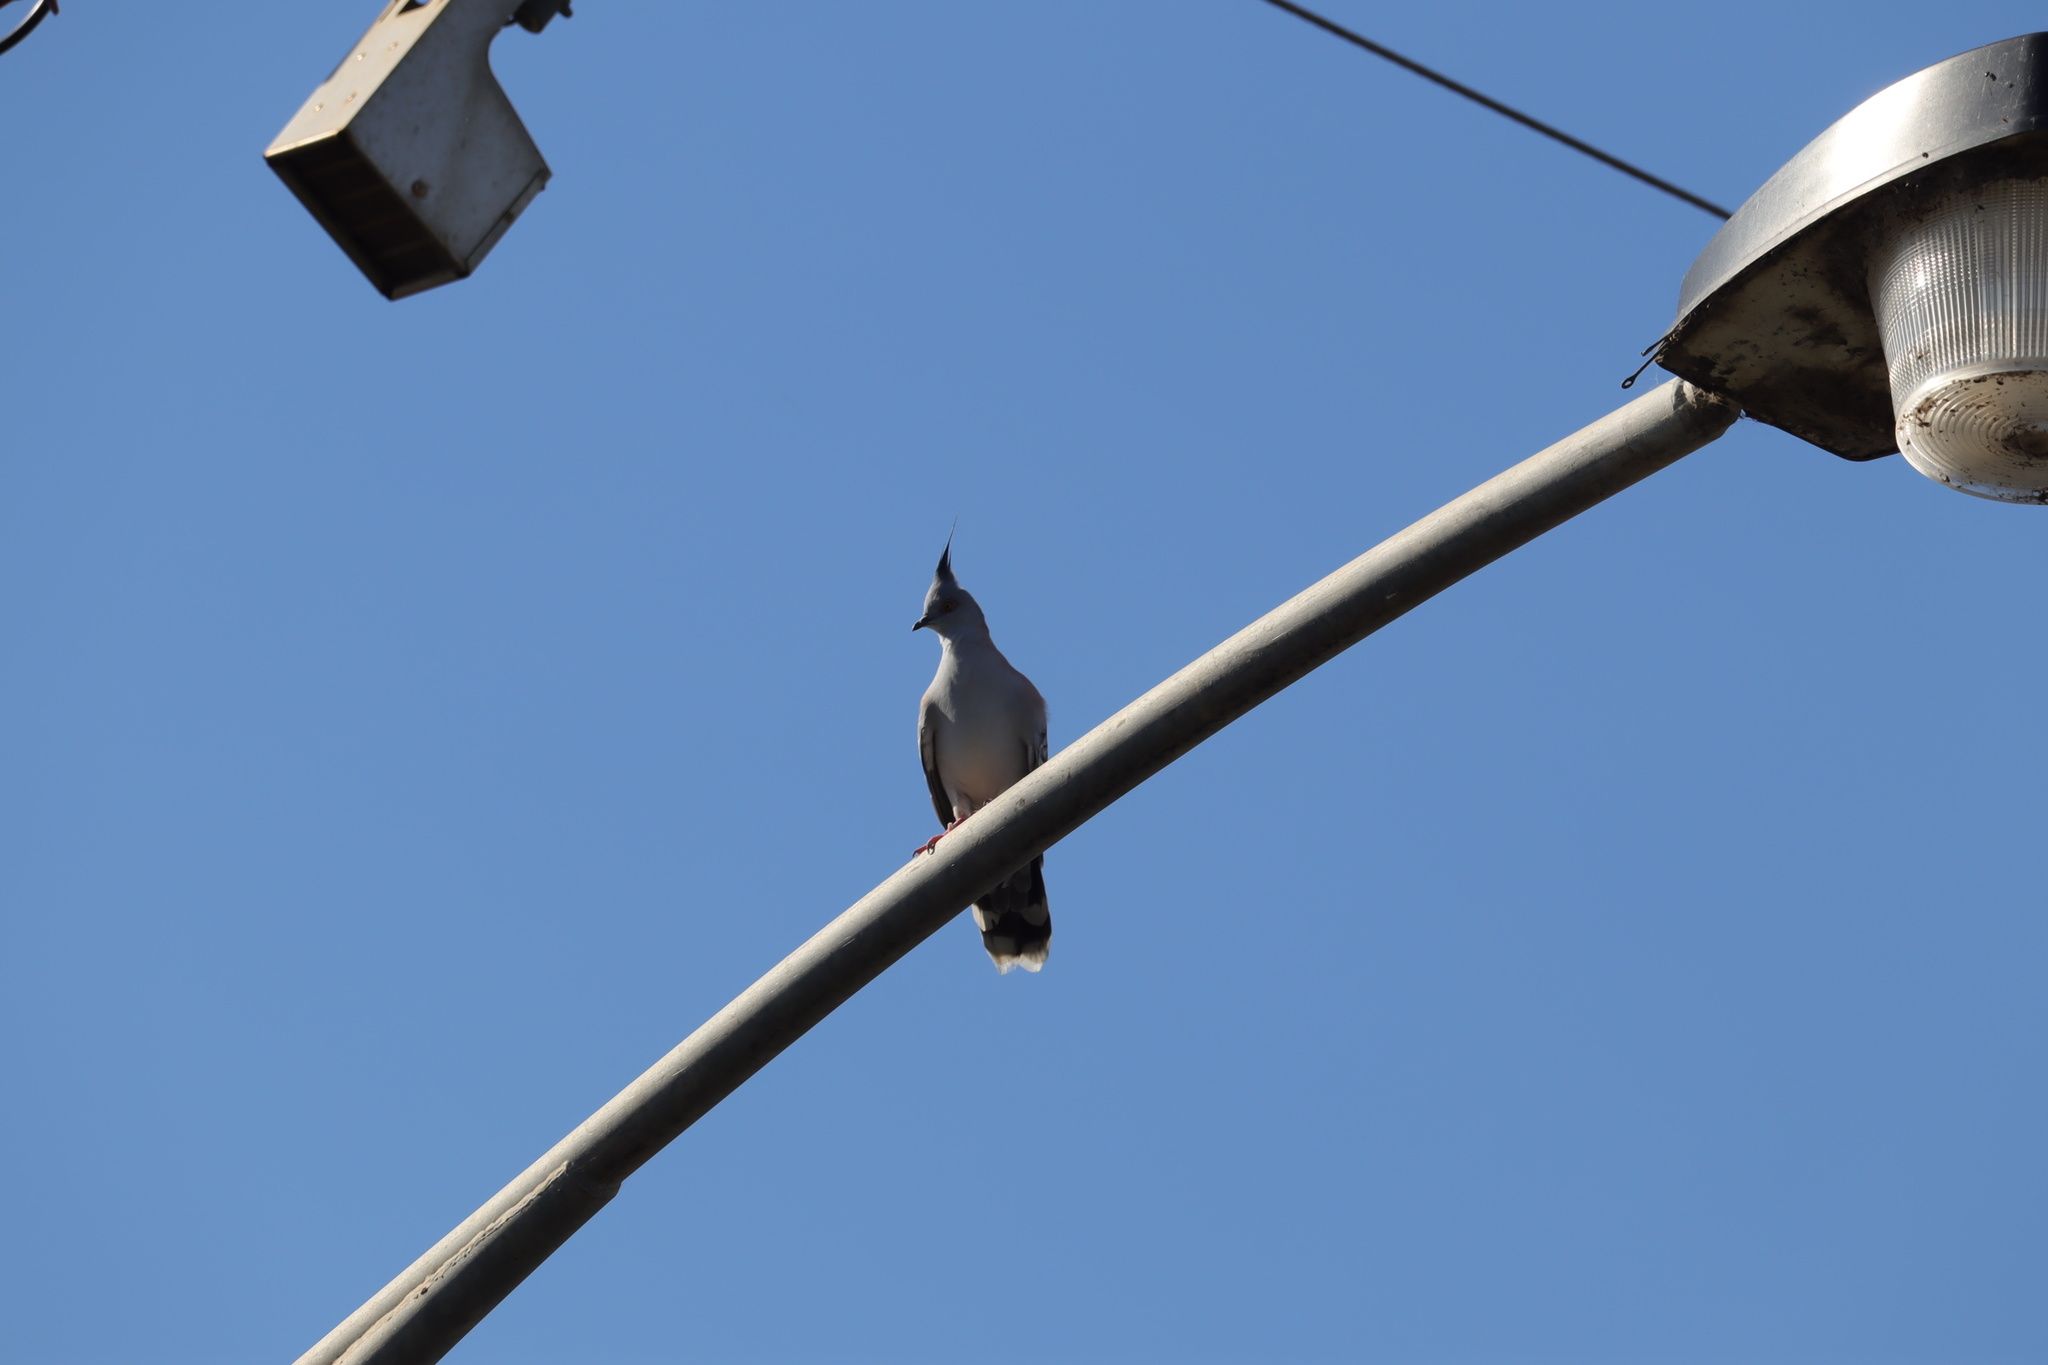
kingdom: Animalia
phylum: Chordata
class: Aves
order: Columbiformes
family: Columbidae
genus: Ocyphaps
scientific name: Ocyphaps lophotes
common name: Crested pigeon
